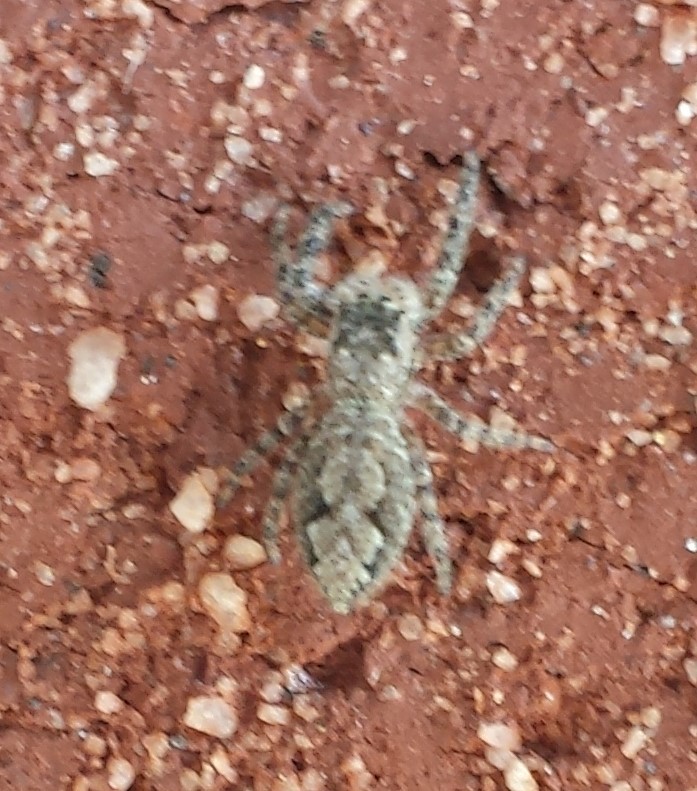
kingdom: Animalia
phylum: Arthropoda
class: Arachnida
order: Araneae
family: Salticidae
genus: Platycryptus
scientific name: Platycryptus undatus
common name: Tan jumping spider
